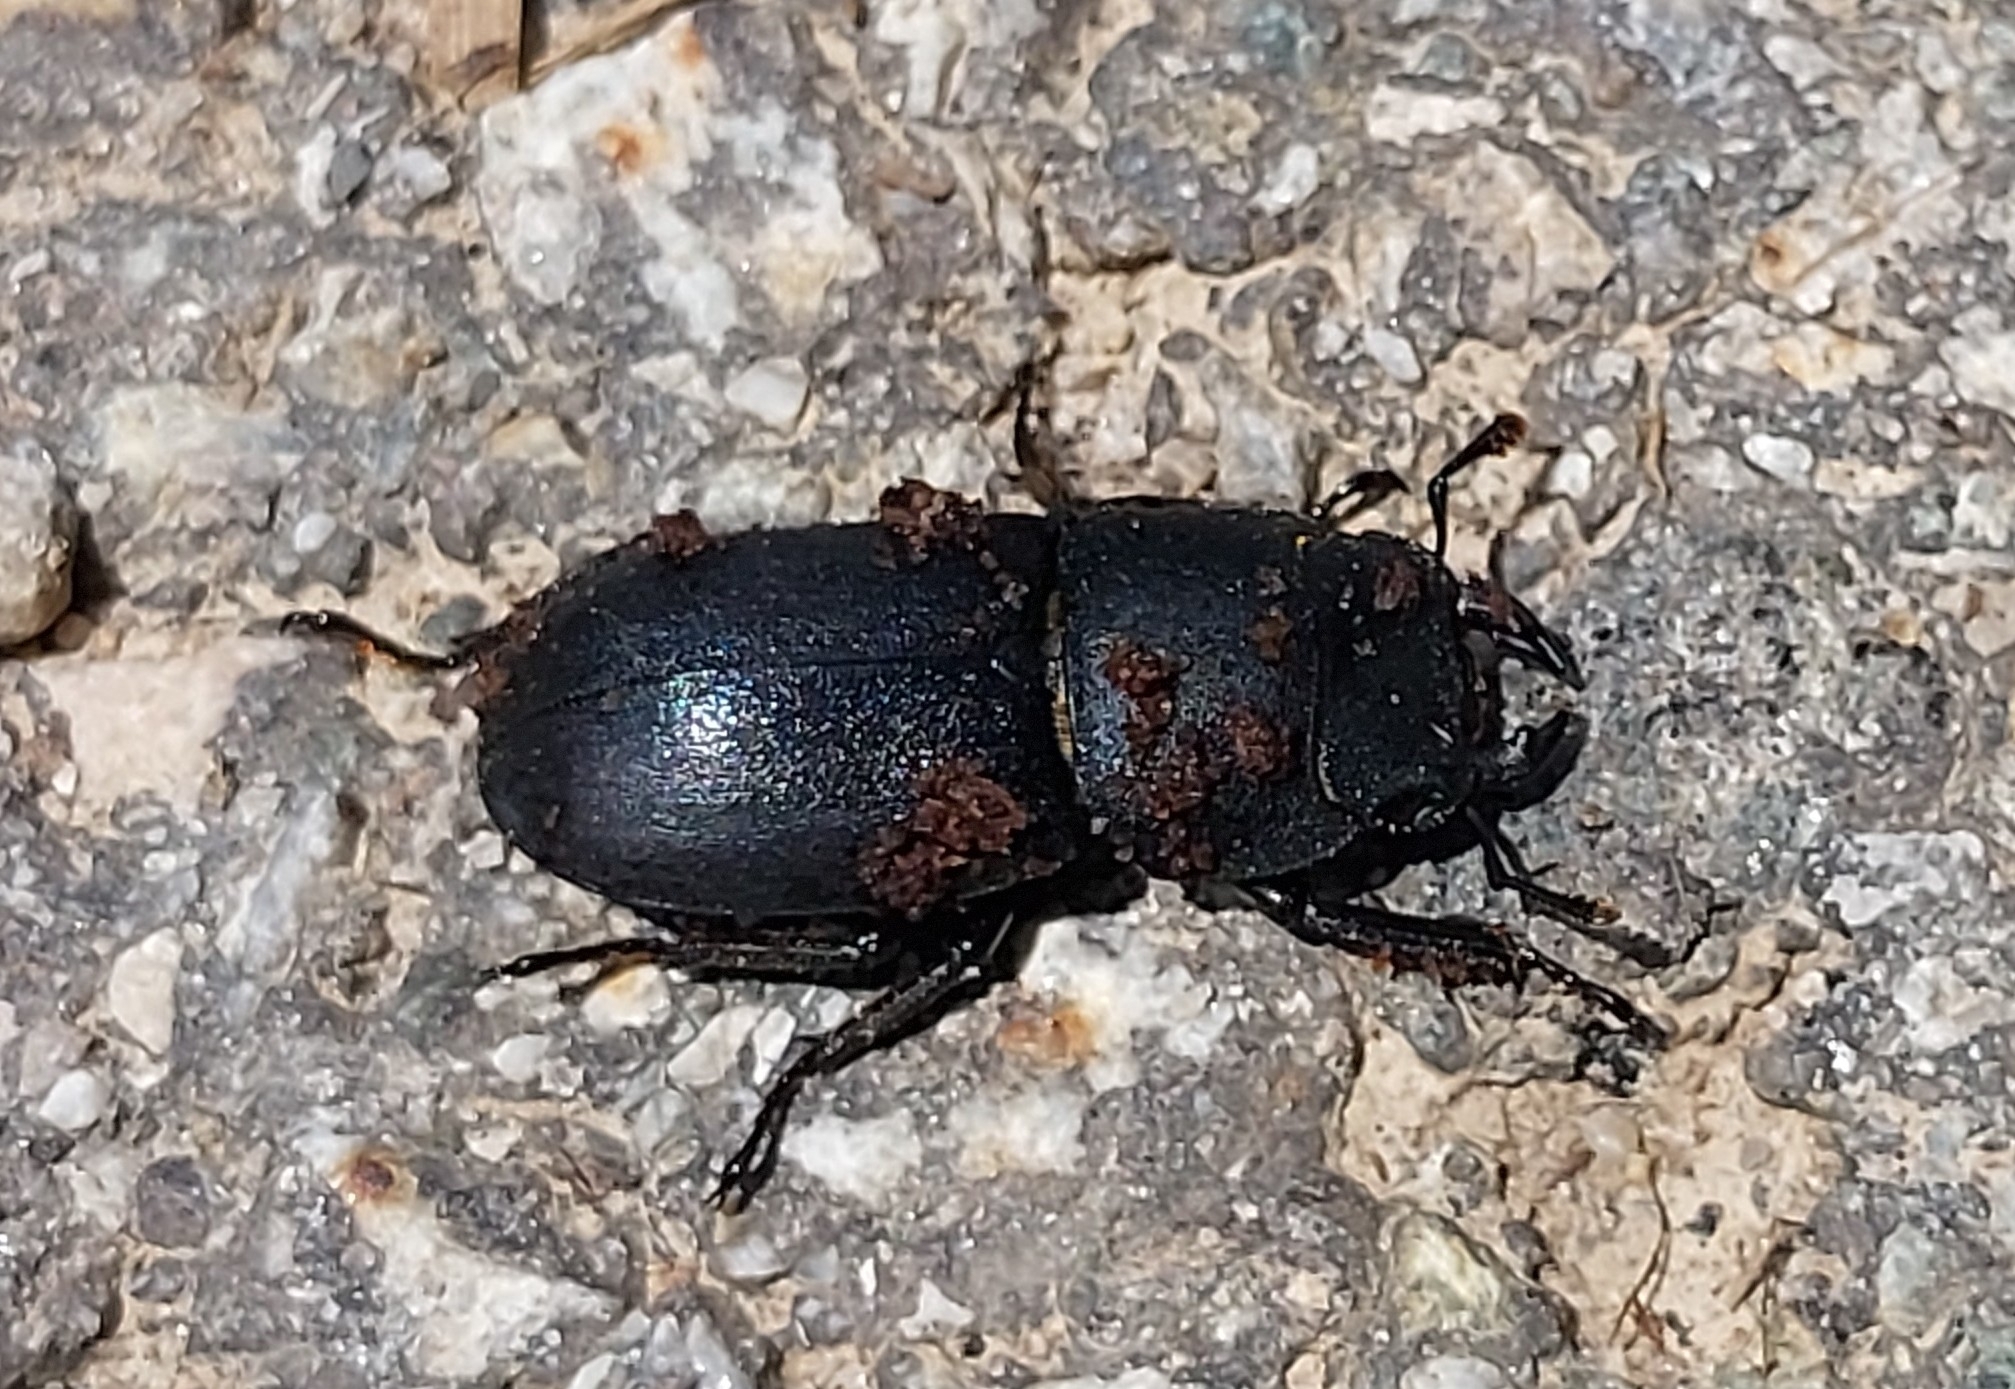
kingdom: Animalia
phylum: Arthropoda
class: Insecta
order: Coleoptera
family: Lucanidae
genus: Dorcus
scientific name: Dorcus parallelipipedus
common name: Lesser stag beetle
